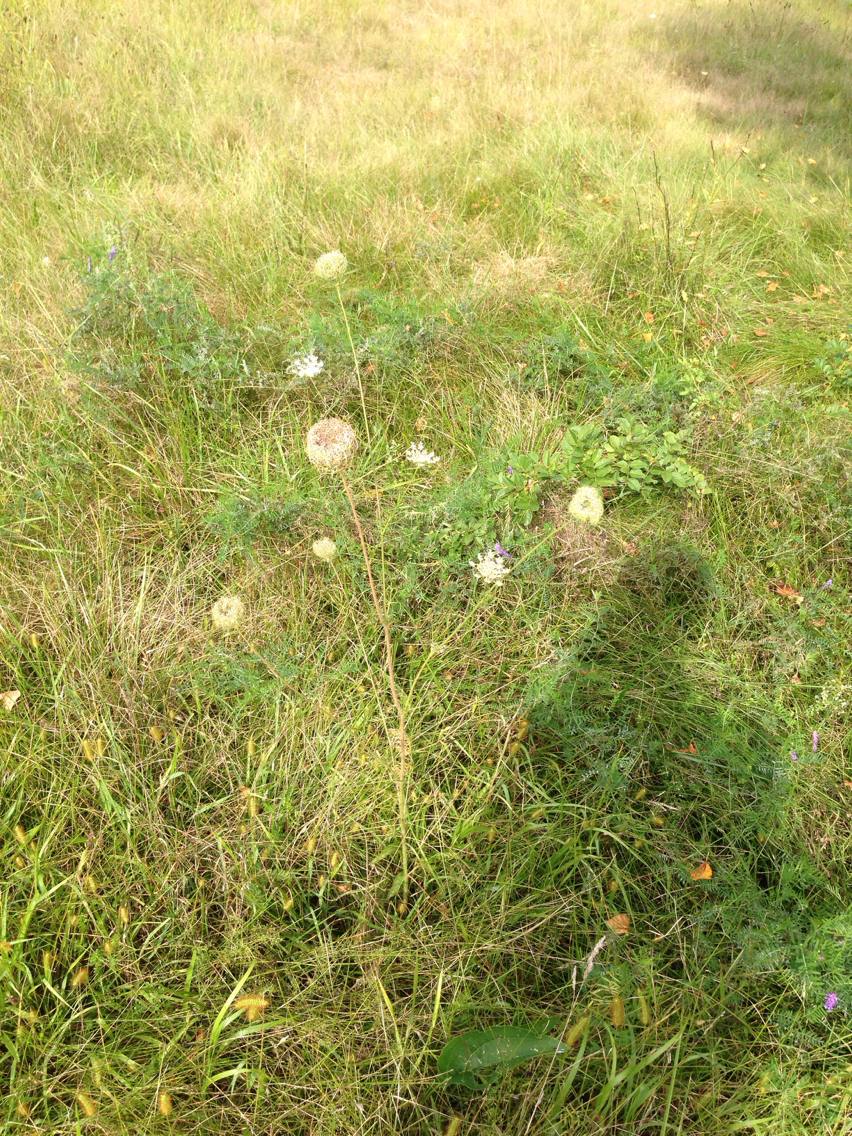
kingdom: Plantae
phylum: Tracheophyta
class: Magnoliopsida
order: Apiales
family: Apiaceae
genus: Daucus
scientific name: Daucus carota
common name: Wild carrot
